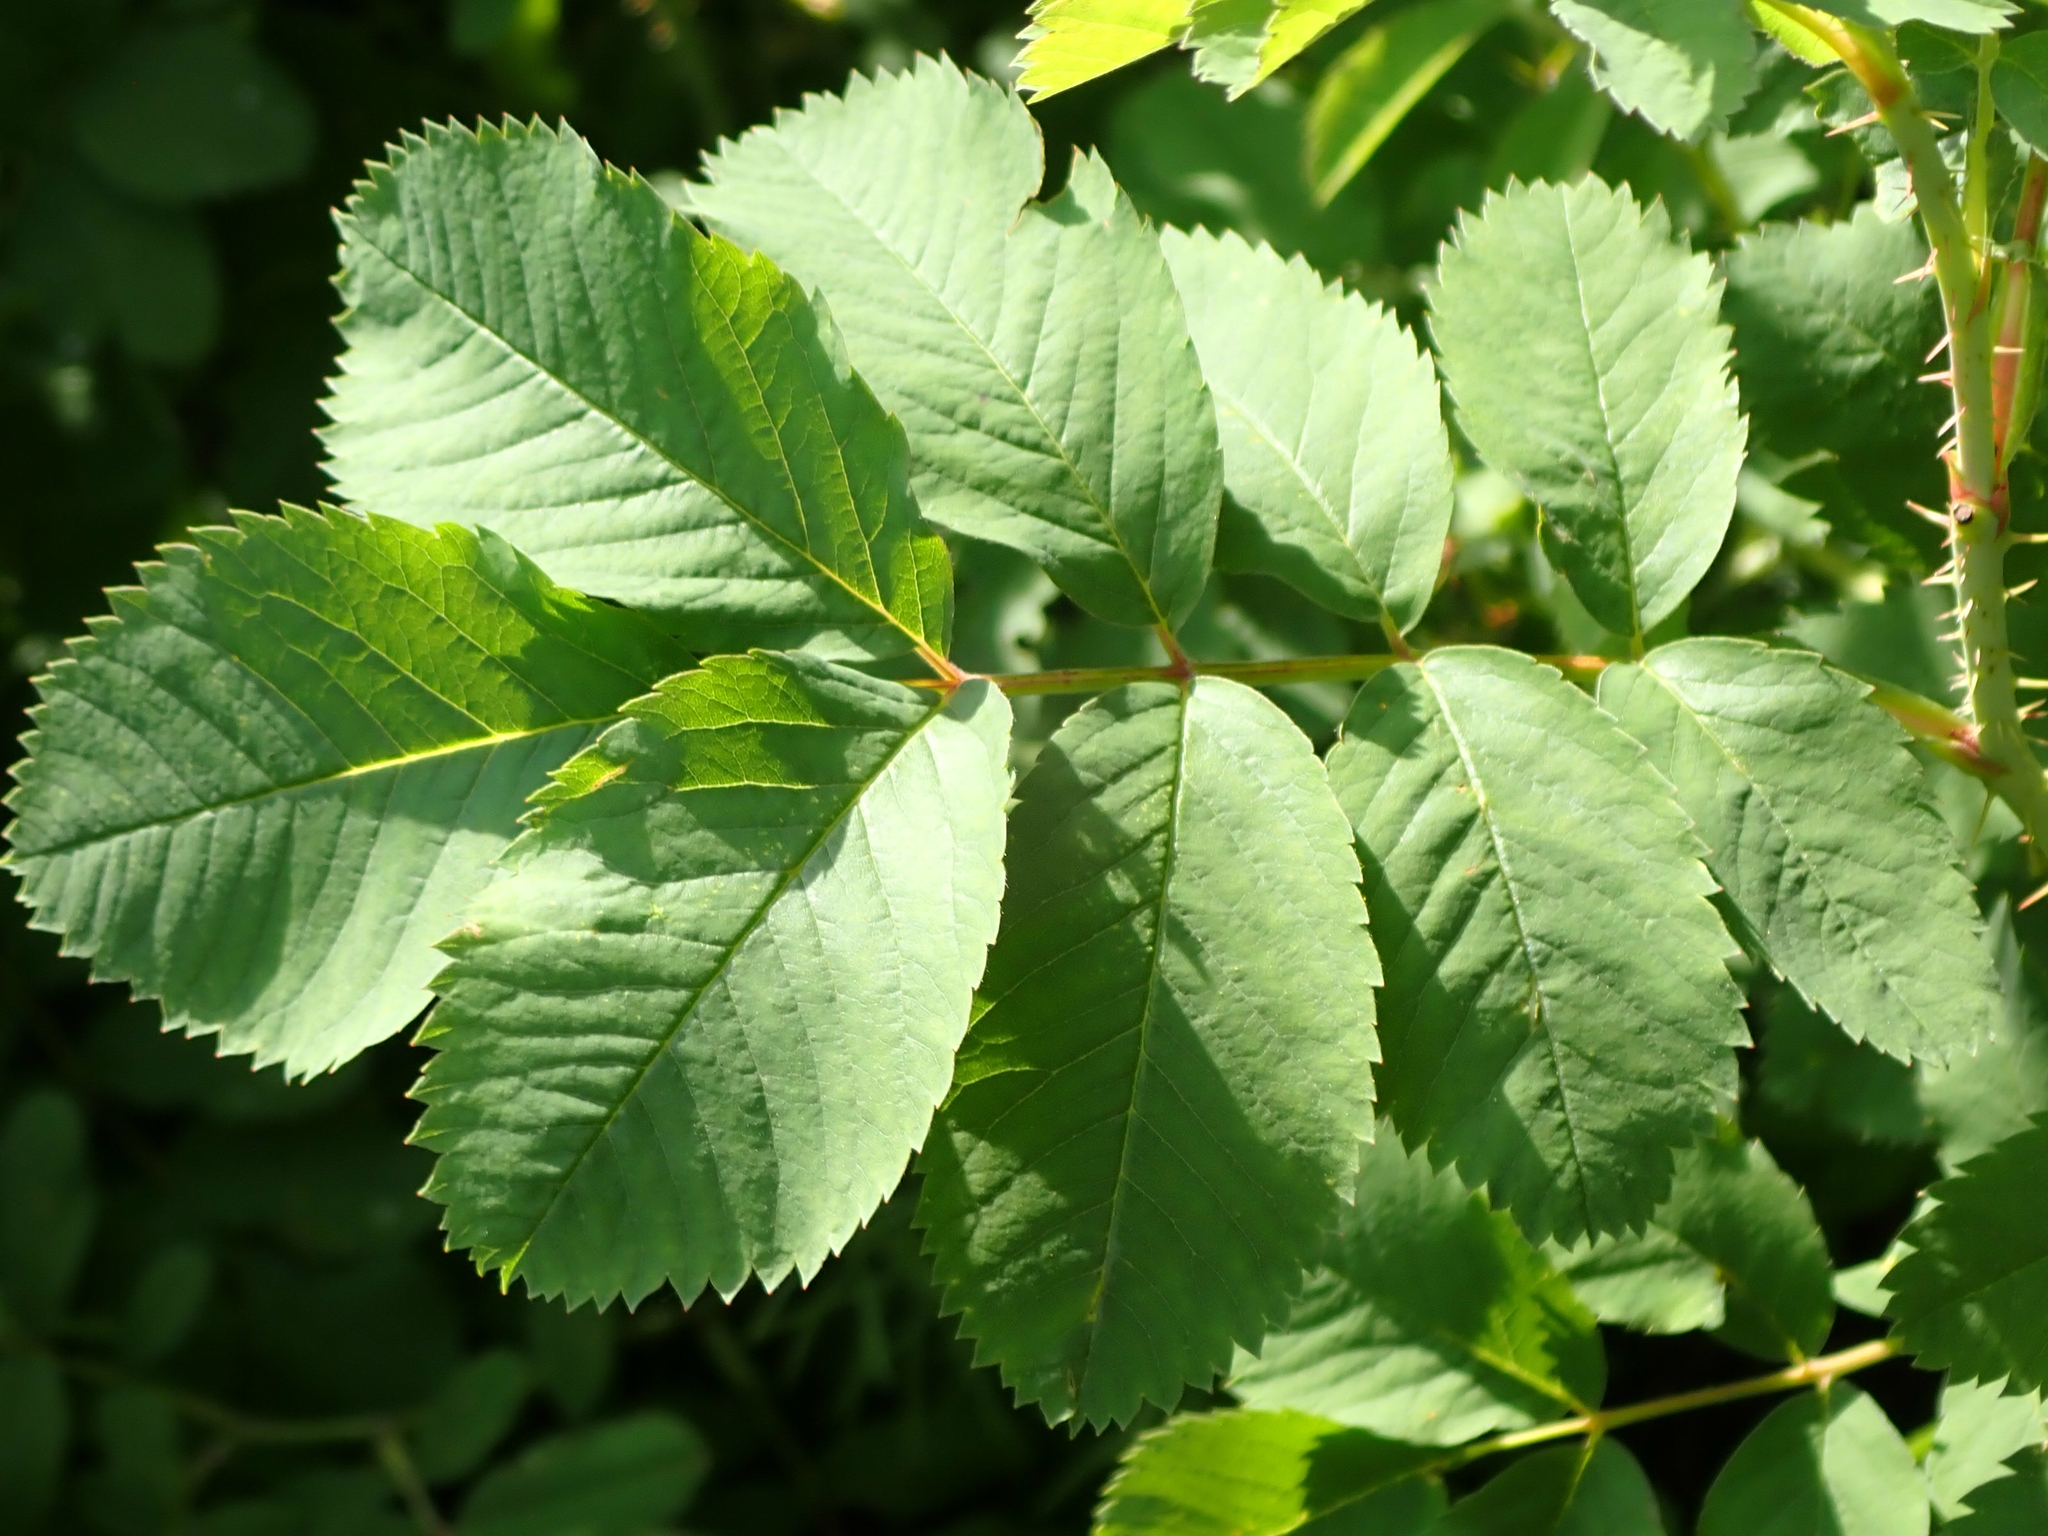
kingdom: Plantae
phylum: Tracheophyta
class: Magnoliopsida
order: Rosales
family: Rosaceae
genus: Rosa
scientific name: Rosa woodsii
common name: Woods's rose
